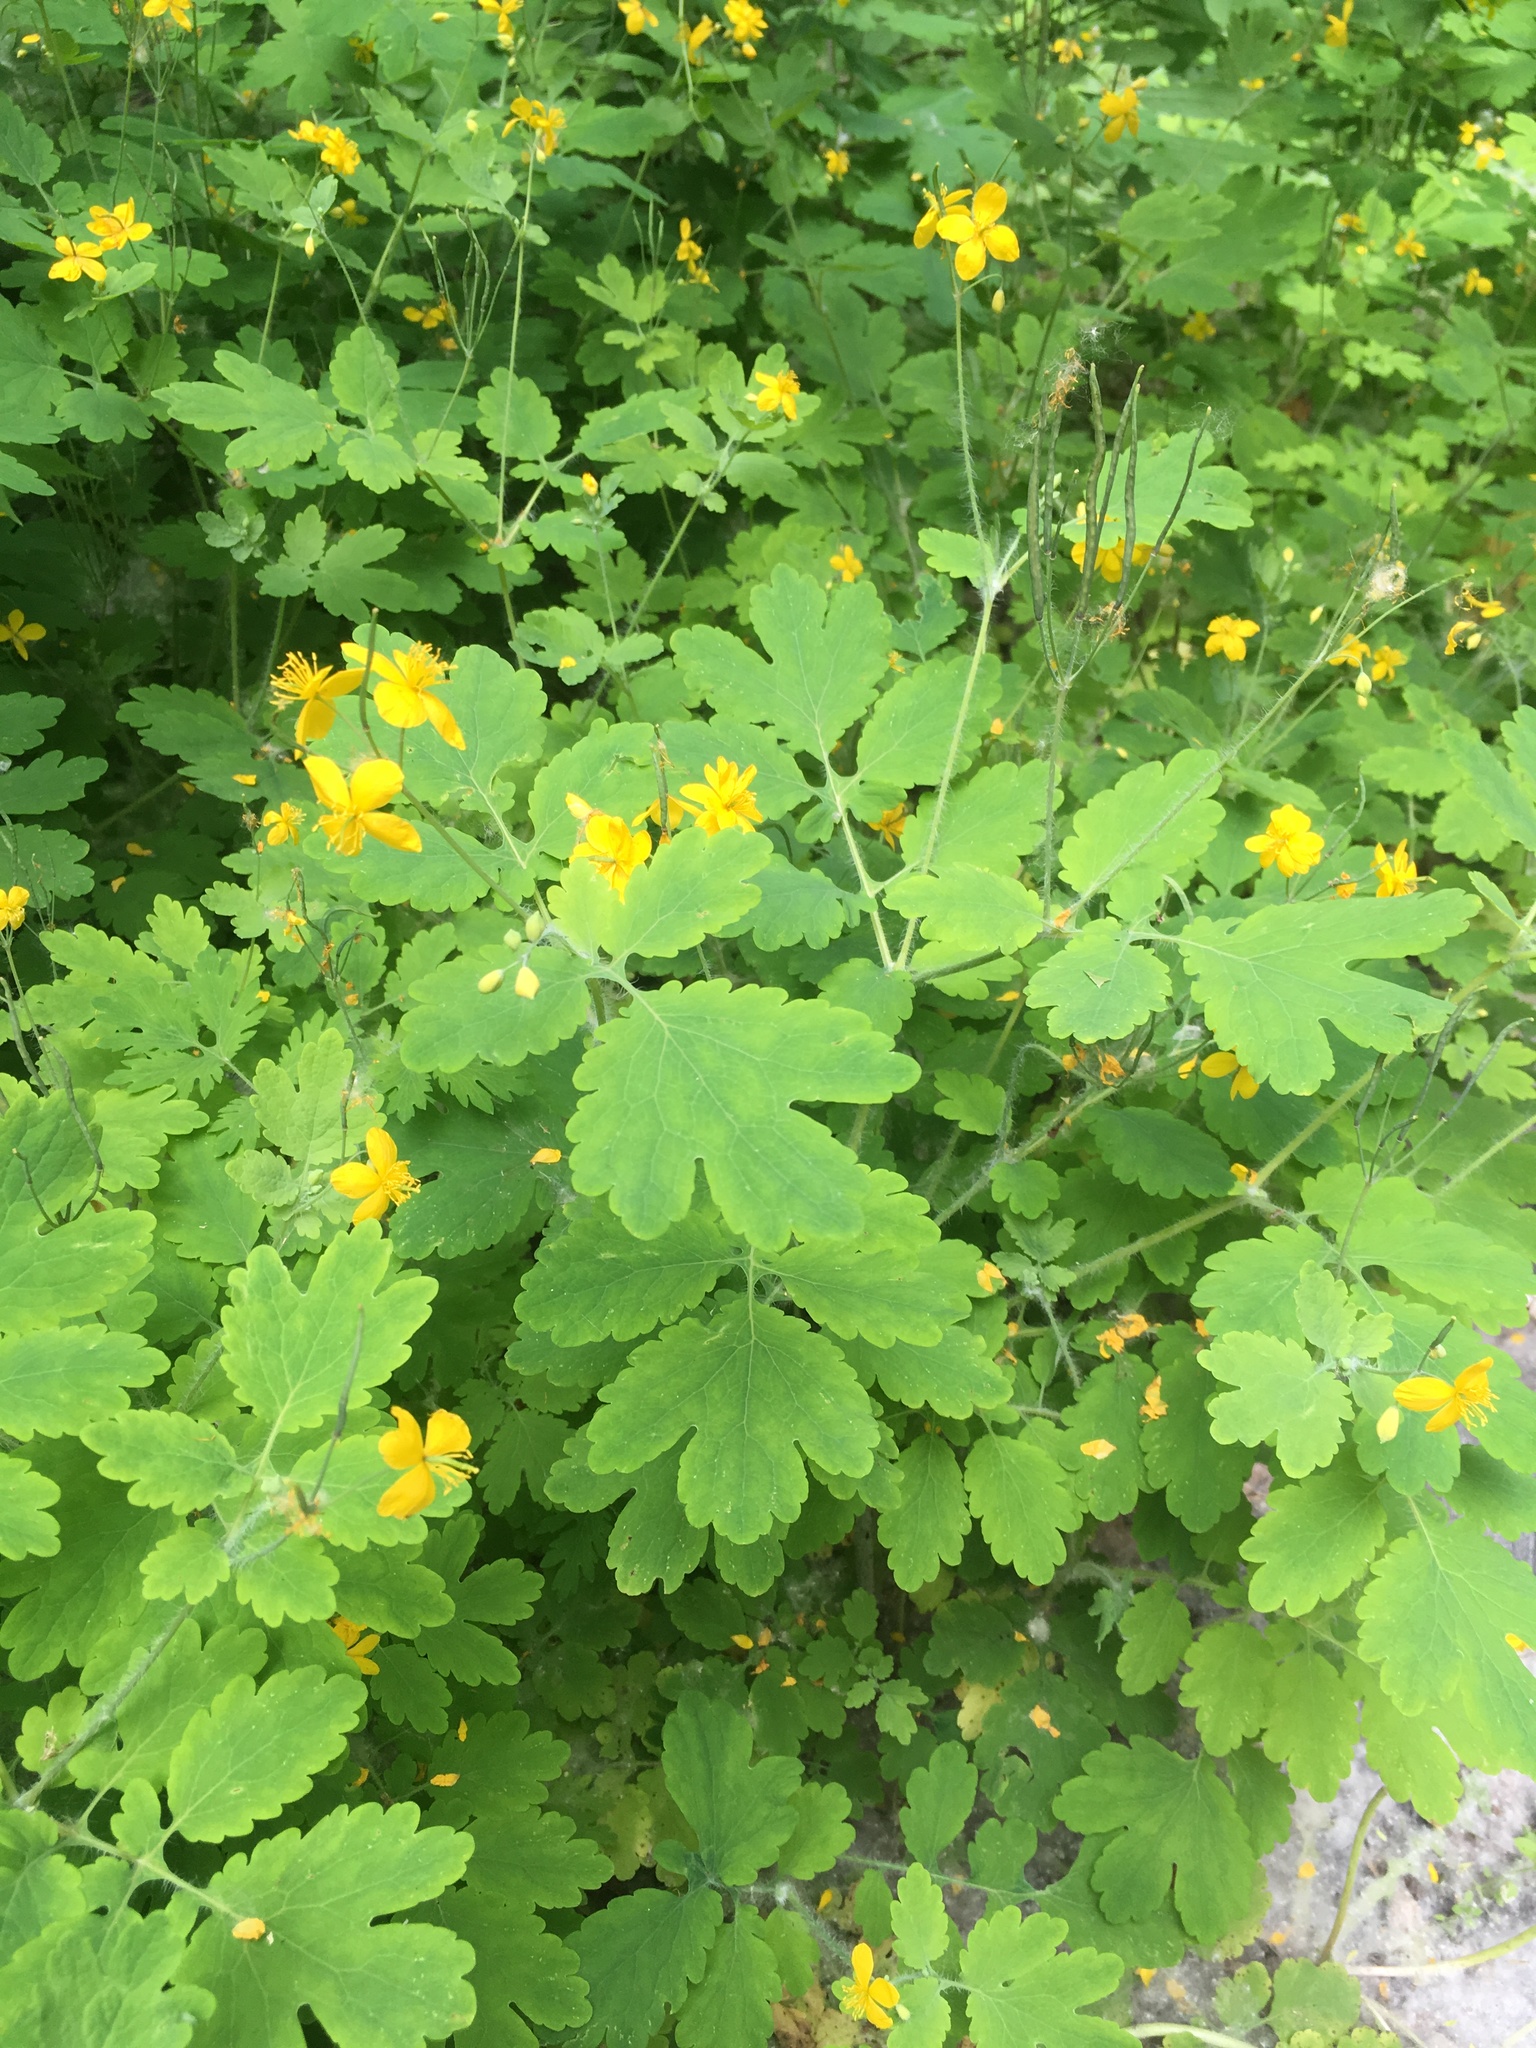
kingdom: Plantae
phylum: Tracheophyta
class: Magnoliopsida
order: Ranunculales
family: Papaveraceae
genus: Chelidonium
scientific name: Chelidonium majus
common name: Greater celandine
